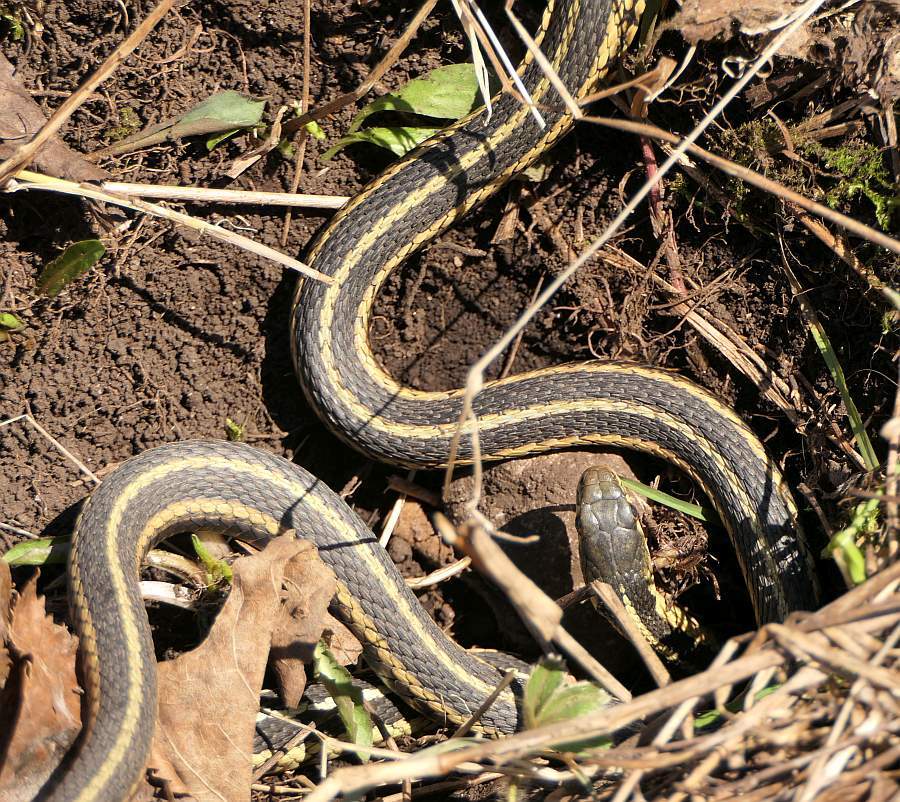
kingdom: Animalia
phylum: Chordata
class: Squamata
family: Colubridae
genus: Thamnophis
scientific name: Thamnophis sirtalis
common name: Common garter snake
